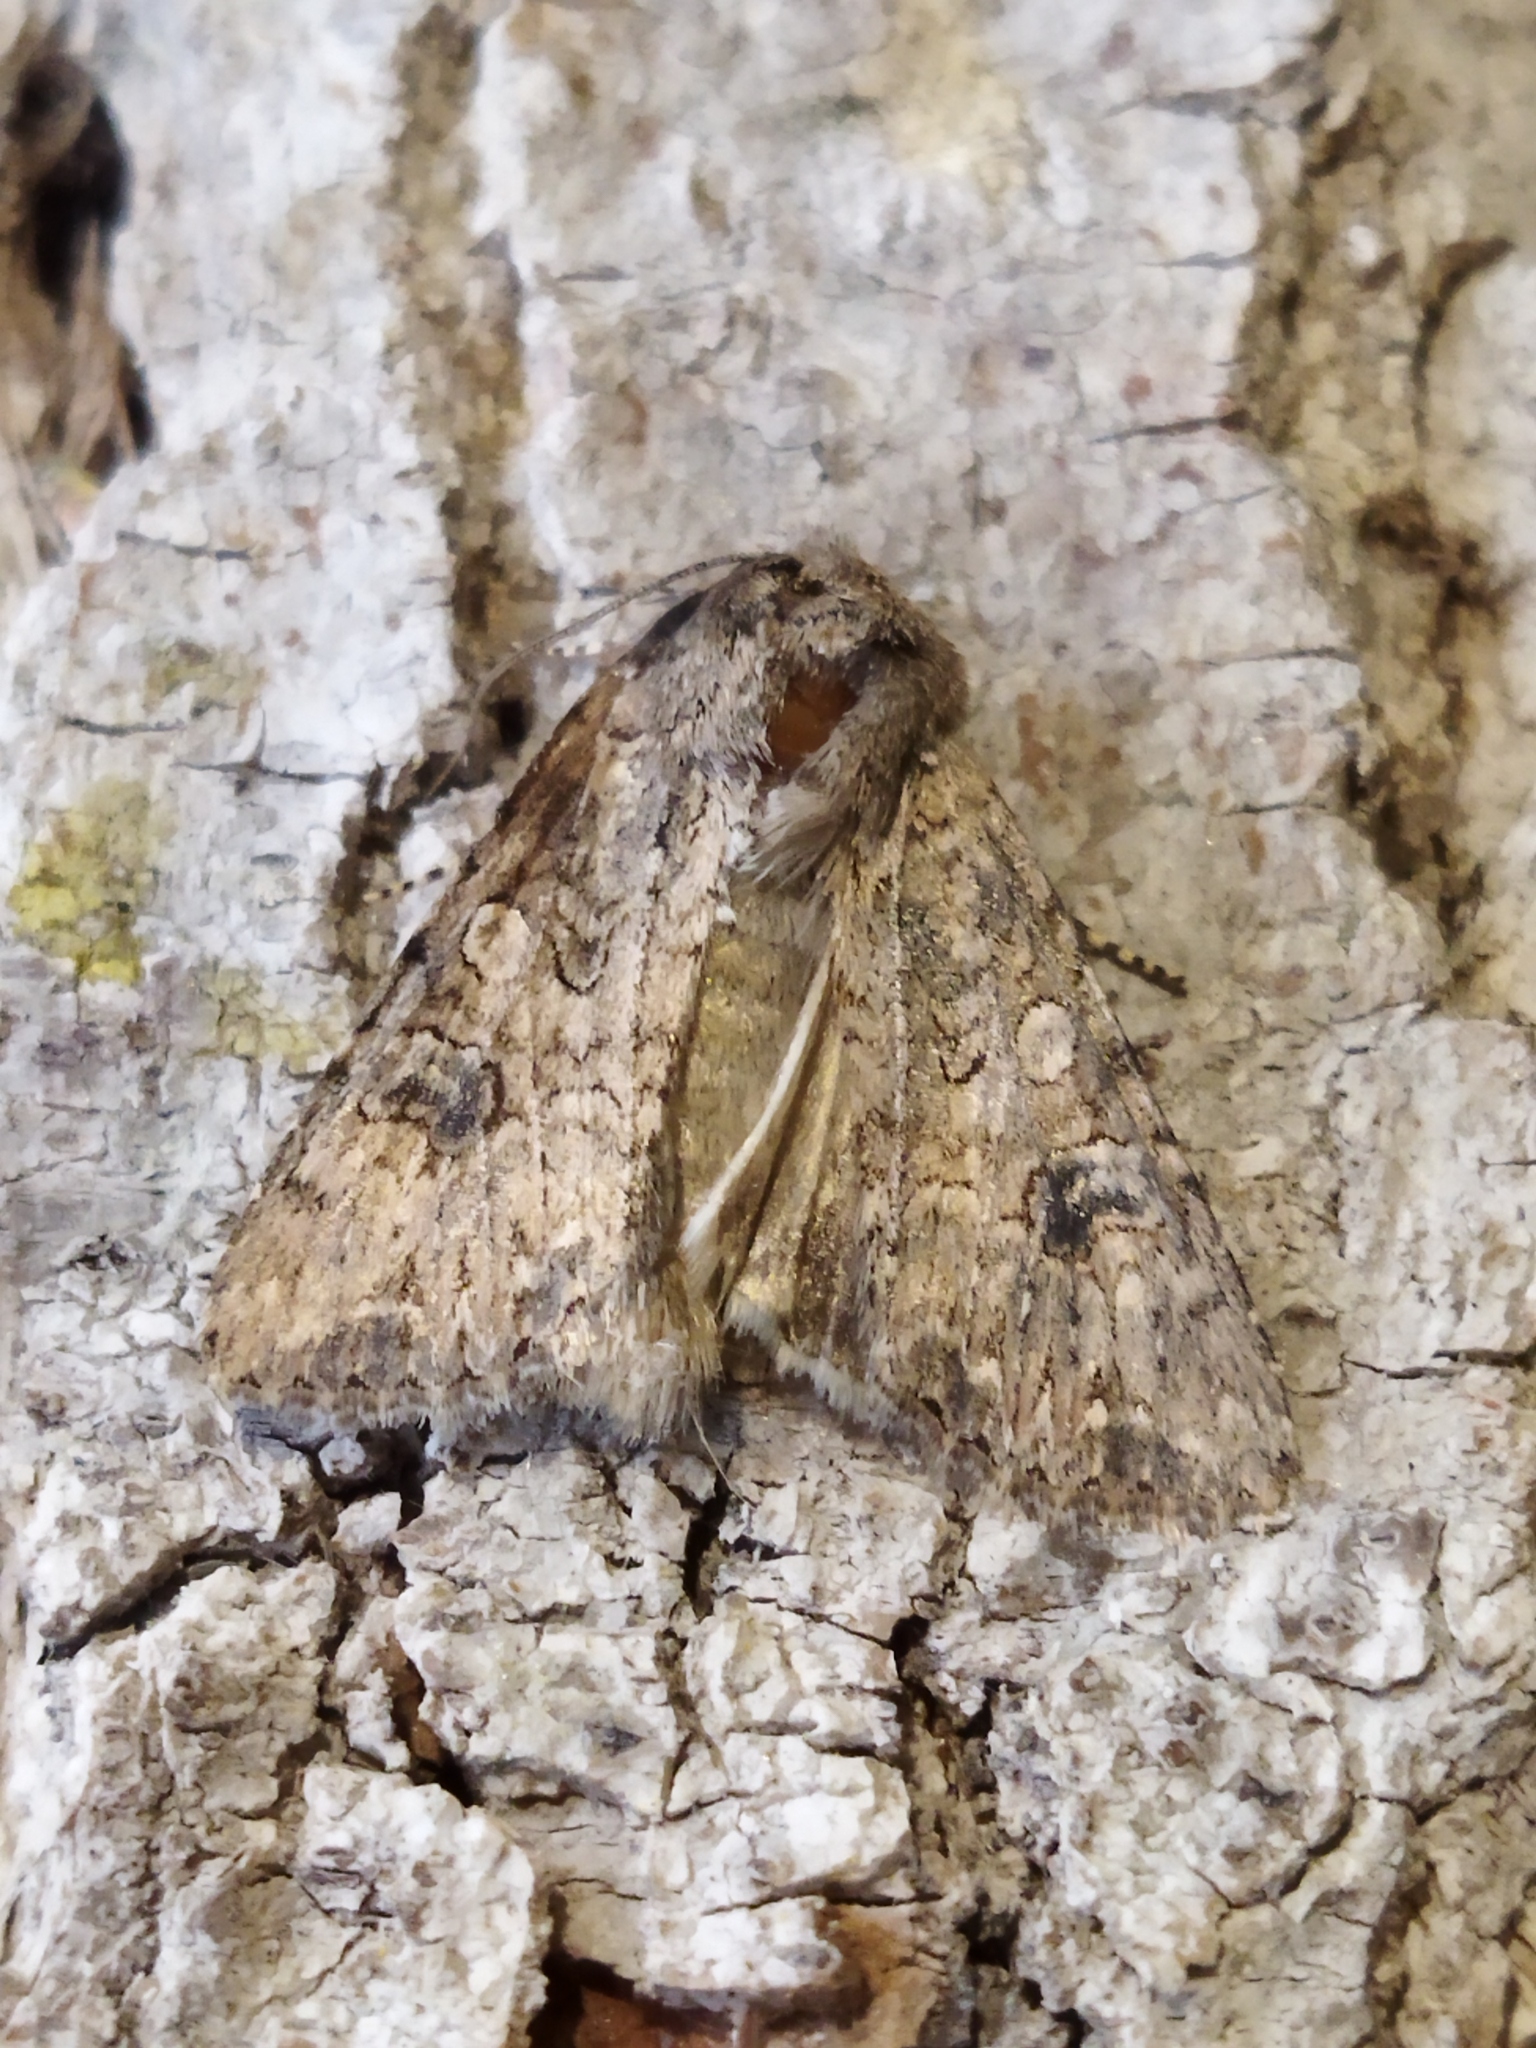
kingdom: Animalia
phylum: Arthropoda
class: Insecta
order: Lepidoptera
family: Noctuidae
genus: Anarta
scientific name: Anarta trifolii
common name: Clover cutworm moth
